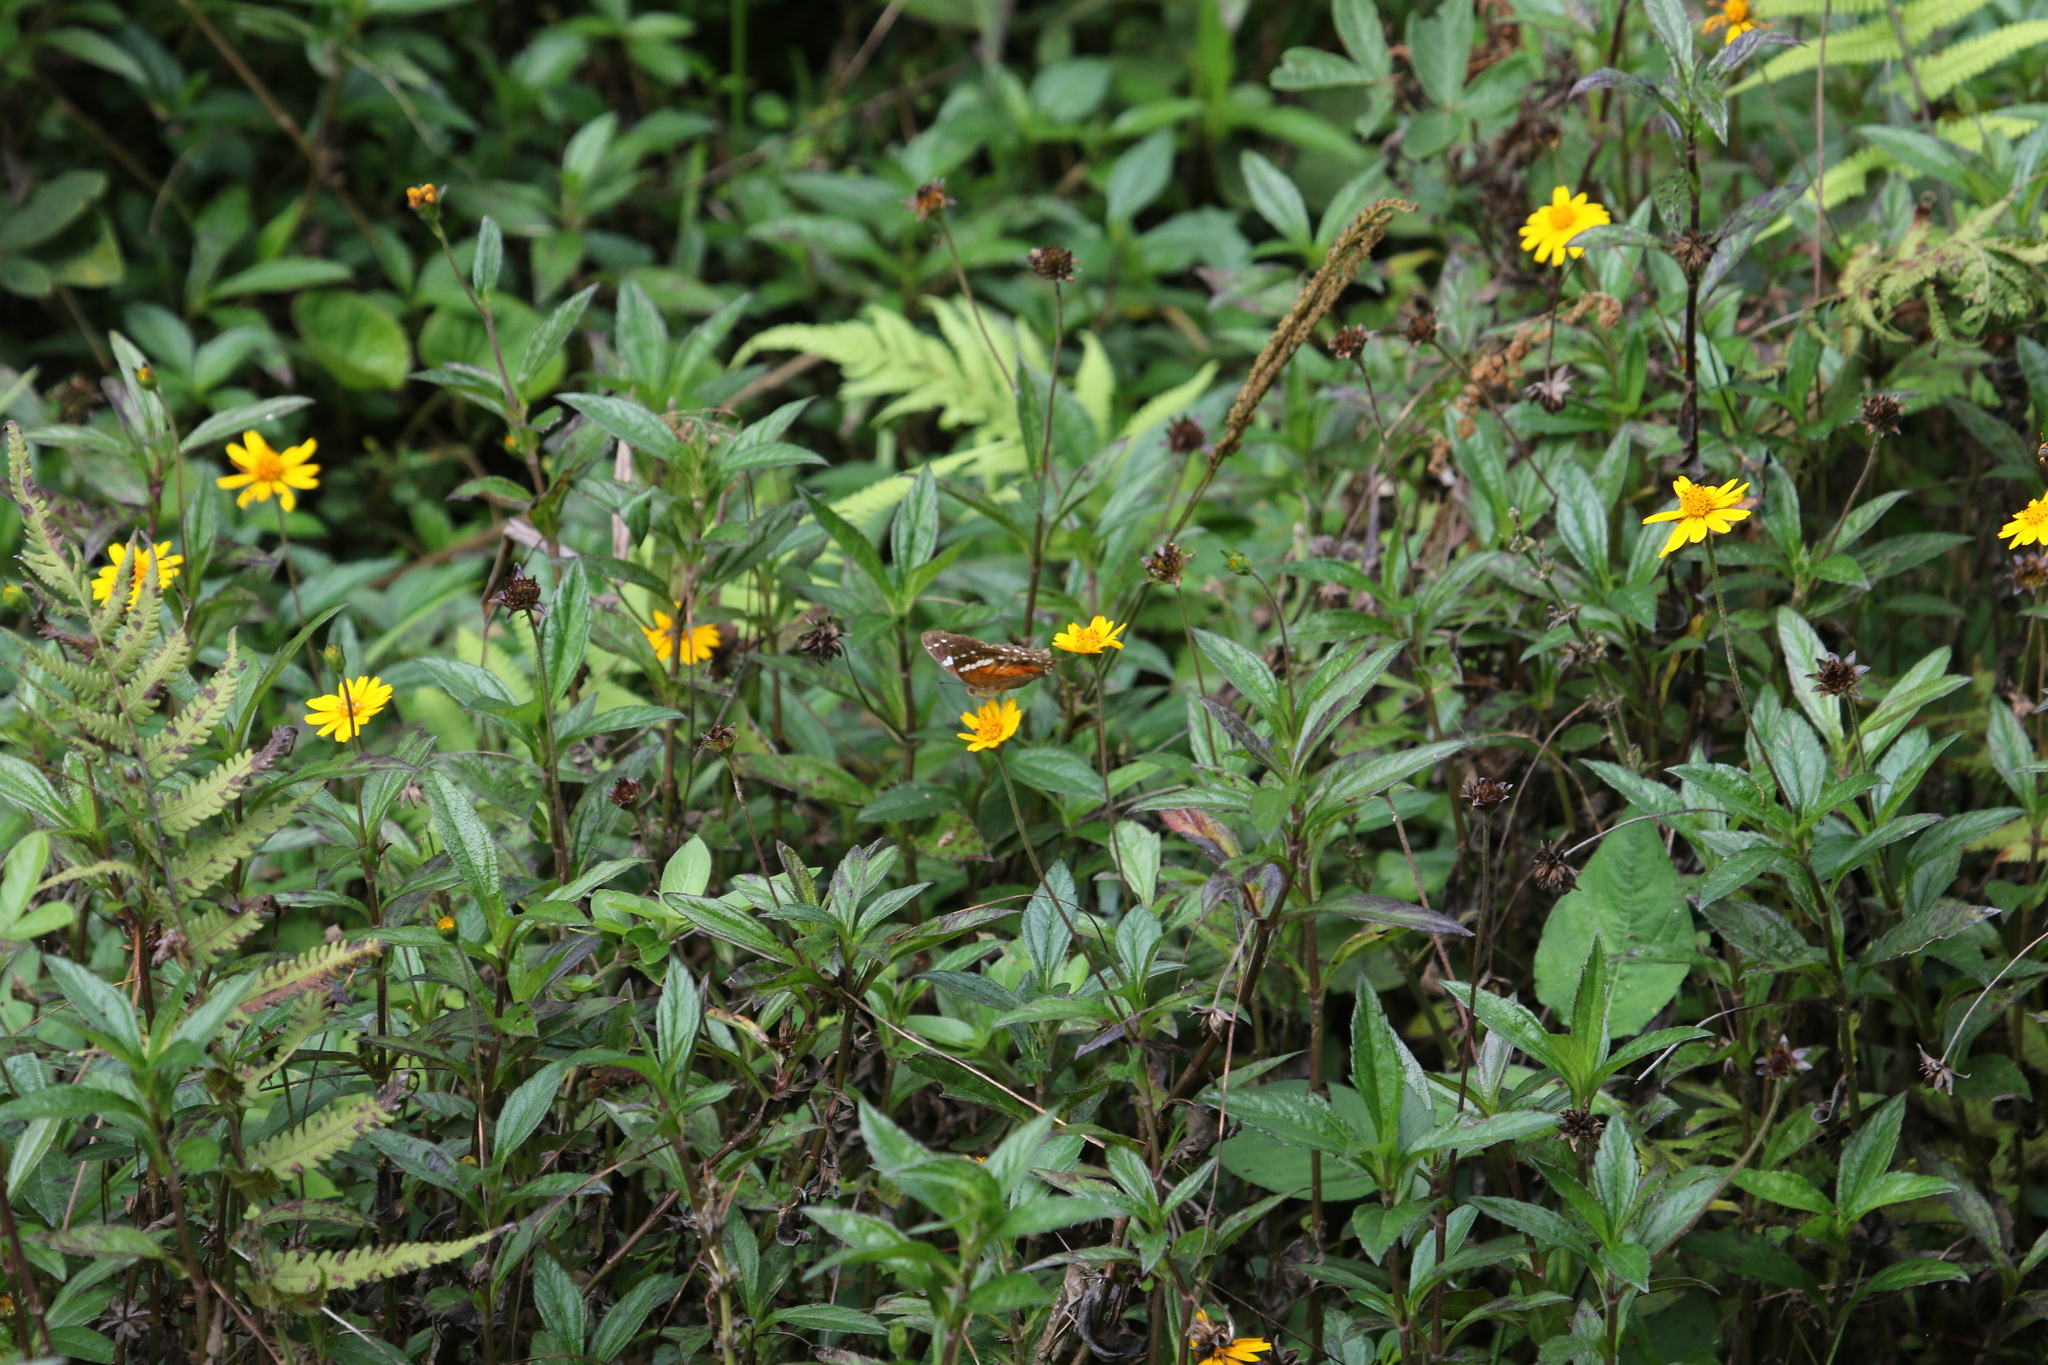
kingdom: Animalia
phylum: Arthropoda
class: Insecta
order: Lepidoptera
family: Nymphalidae
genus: Anartia
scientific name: Anartia amathea
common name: Red peacock
